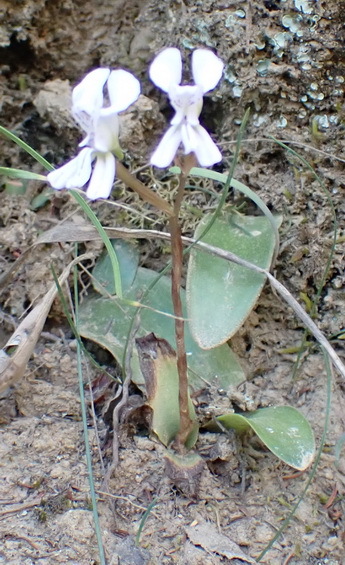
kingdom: Plantae
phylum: Tracheophyta
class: Liliopsida
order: Asparagales
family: Orchidaceae
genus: Disa
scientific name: Disa sagittalis
